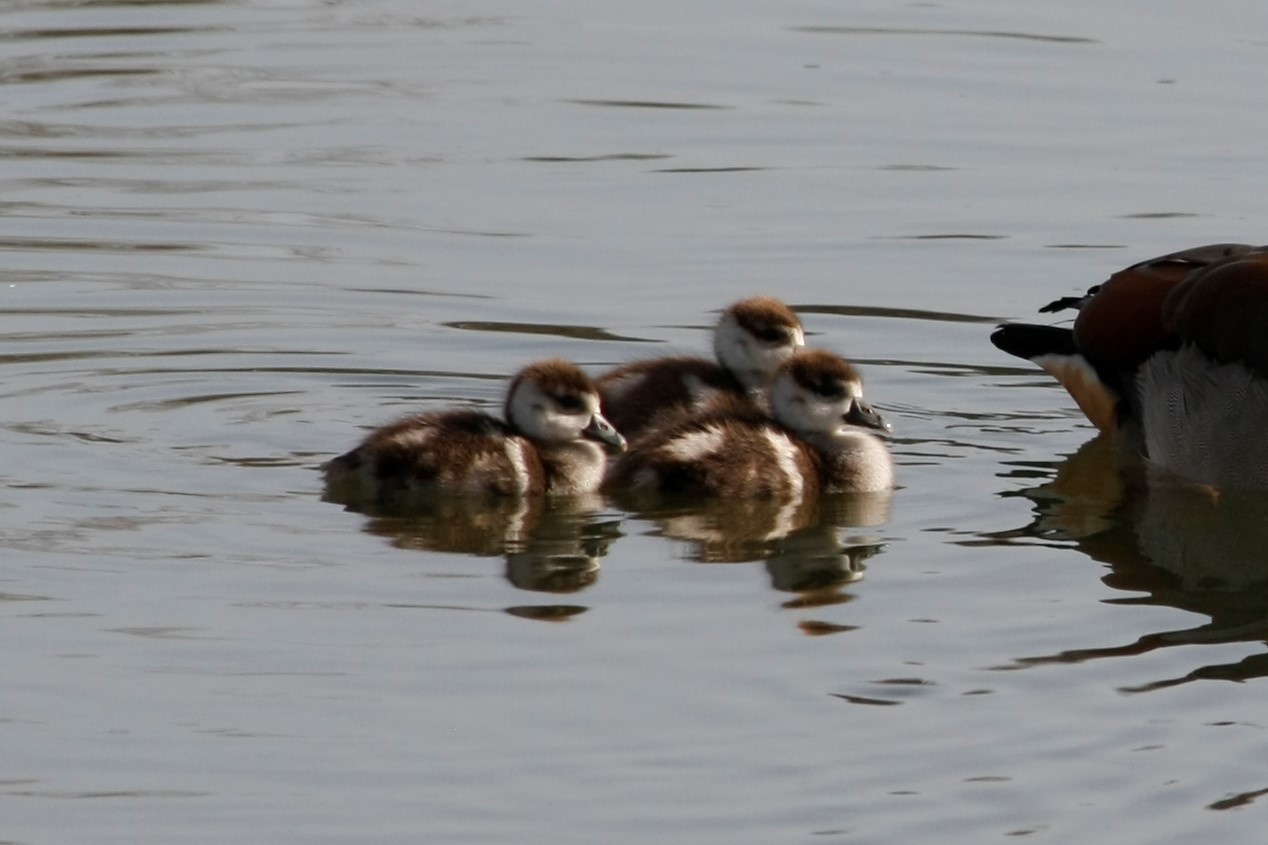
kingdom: Animalia
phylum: Chordata
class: Aves
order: Anseriformes
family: Anatidae
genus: Alopochen
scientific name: Alopochen aegyptiaca
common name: Egyptian goose
